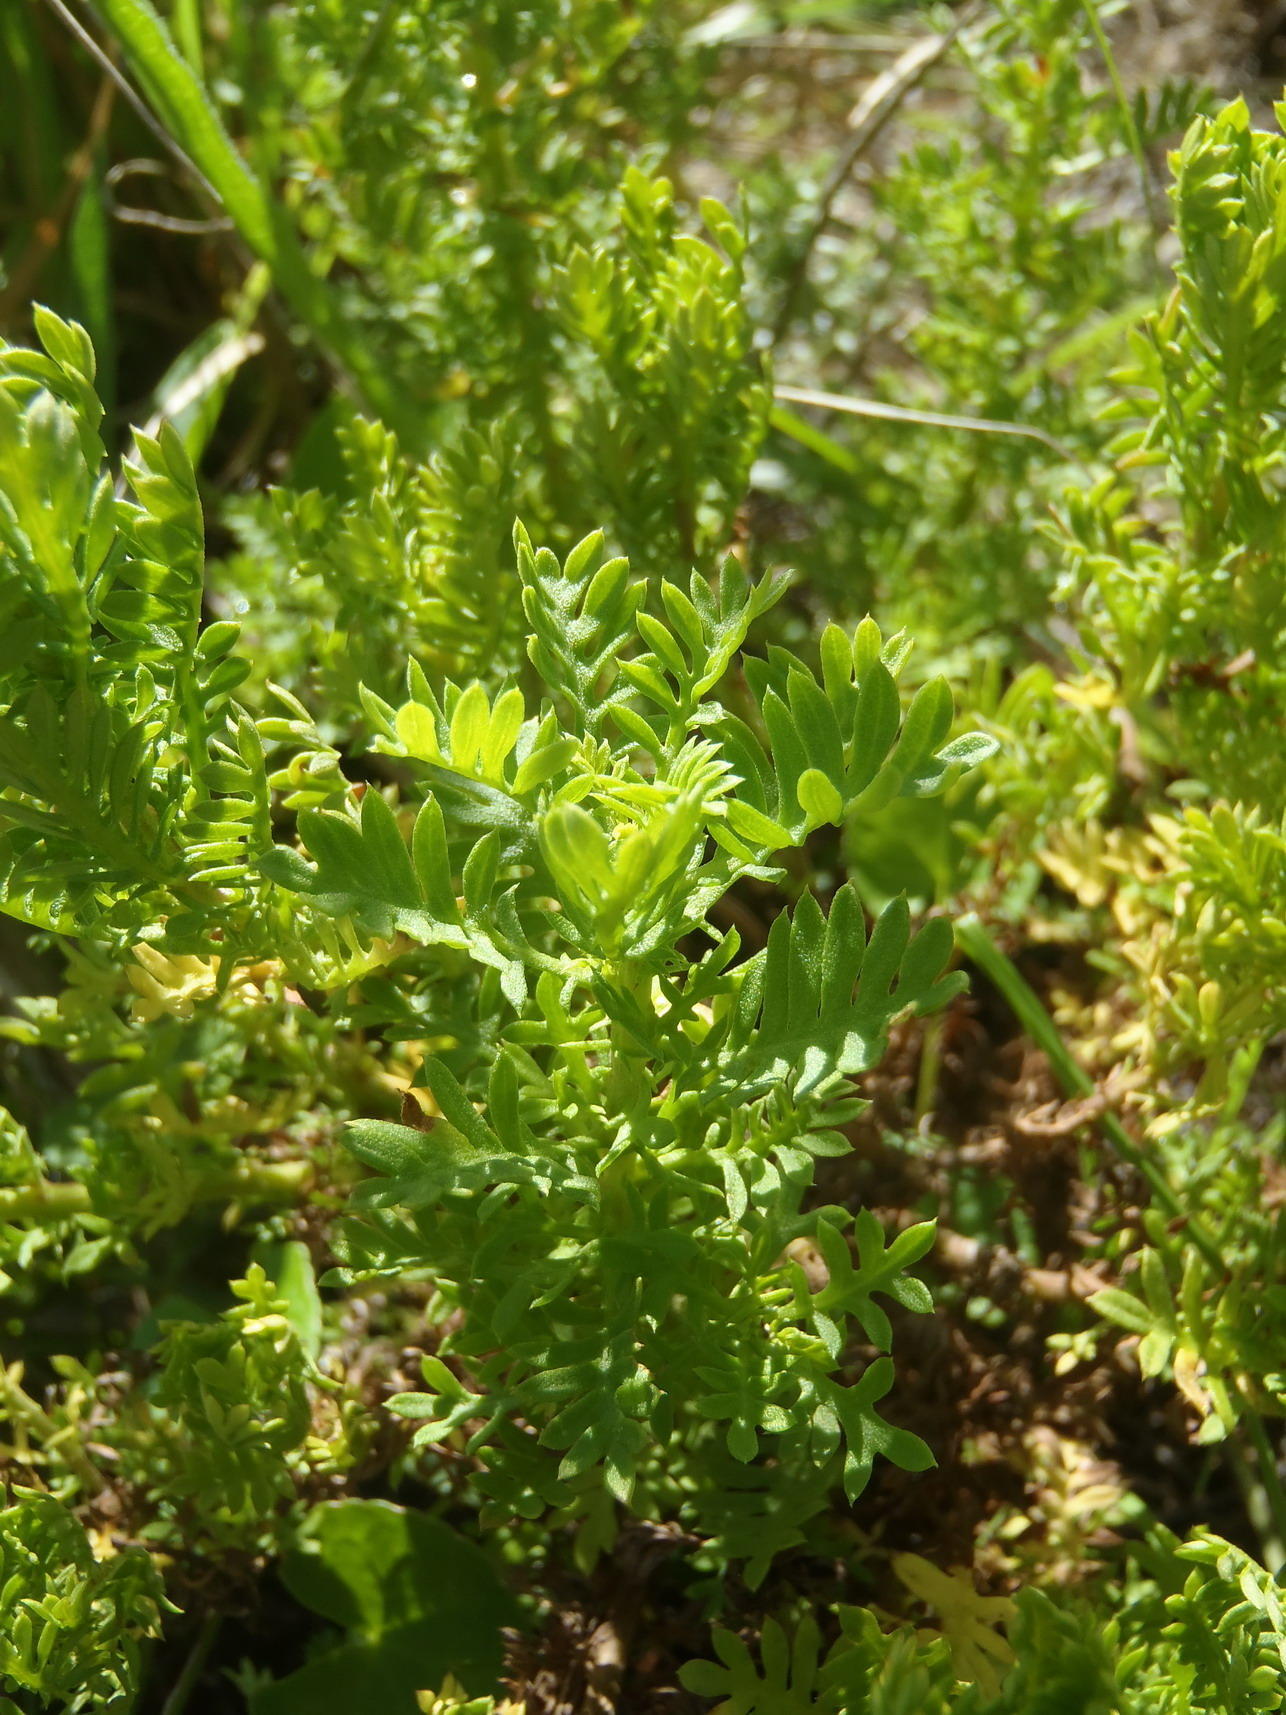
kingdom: Plantae
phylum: Tracheophyta
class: Magnoliopsida
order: Asterales
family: Asteraceae
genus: Hippia
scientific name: Hippia frutescens
